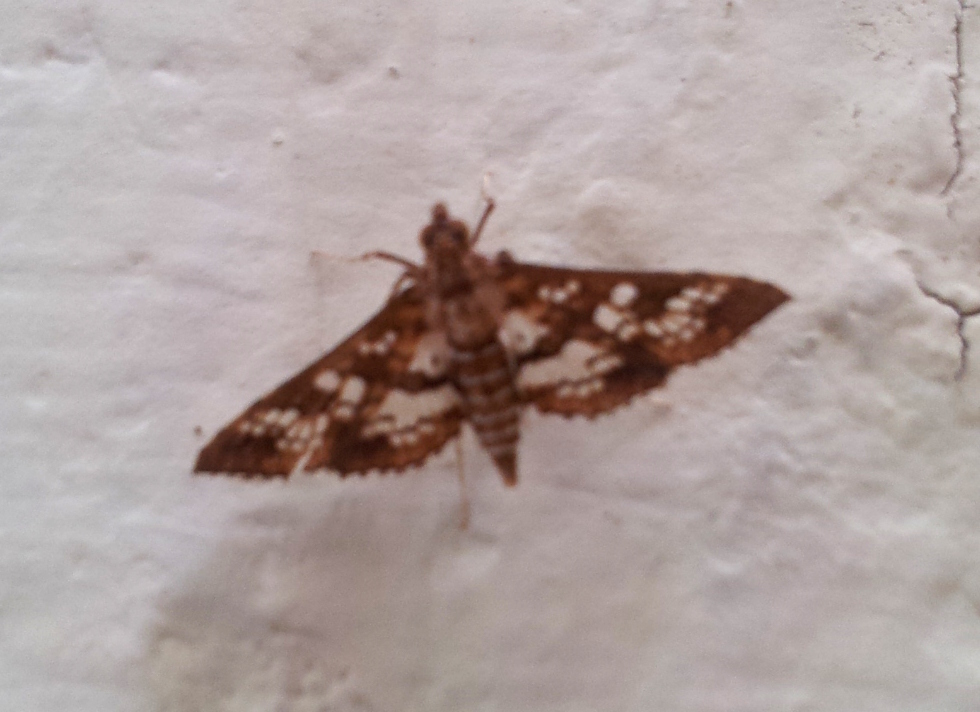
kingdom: Animalia
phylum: Arthropoda
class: Insecta
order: Lepidoptera
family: Crambidae
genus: Sameodes
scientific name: Sameodes cancellalis
